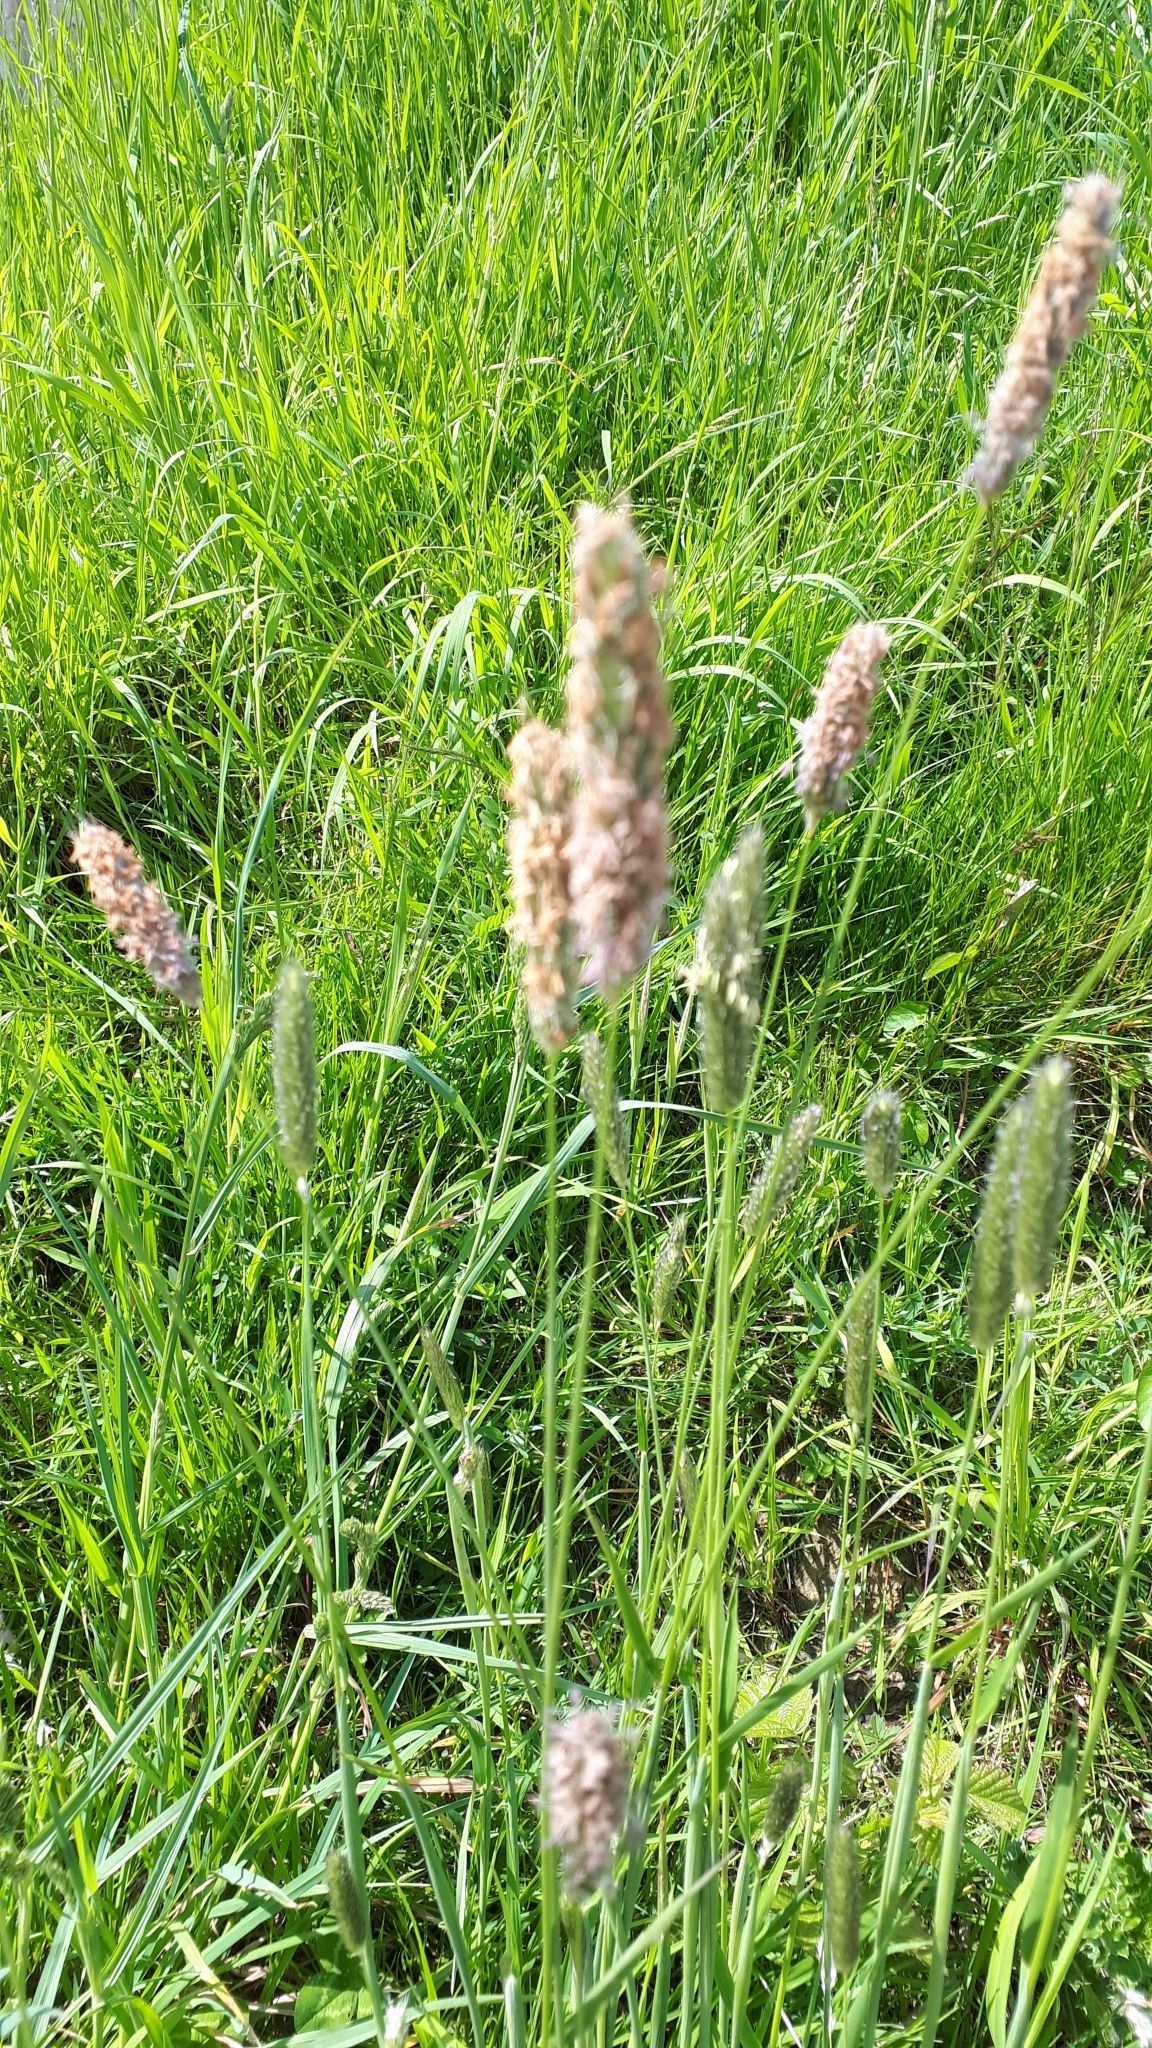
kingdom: Plantae
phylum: Tracheophyta
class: Liliopsida
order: Poales
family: Poaceae
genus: Alopecurus
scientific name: Alopecurus pratensis
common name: Meadow foxtail
